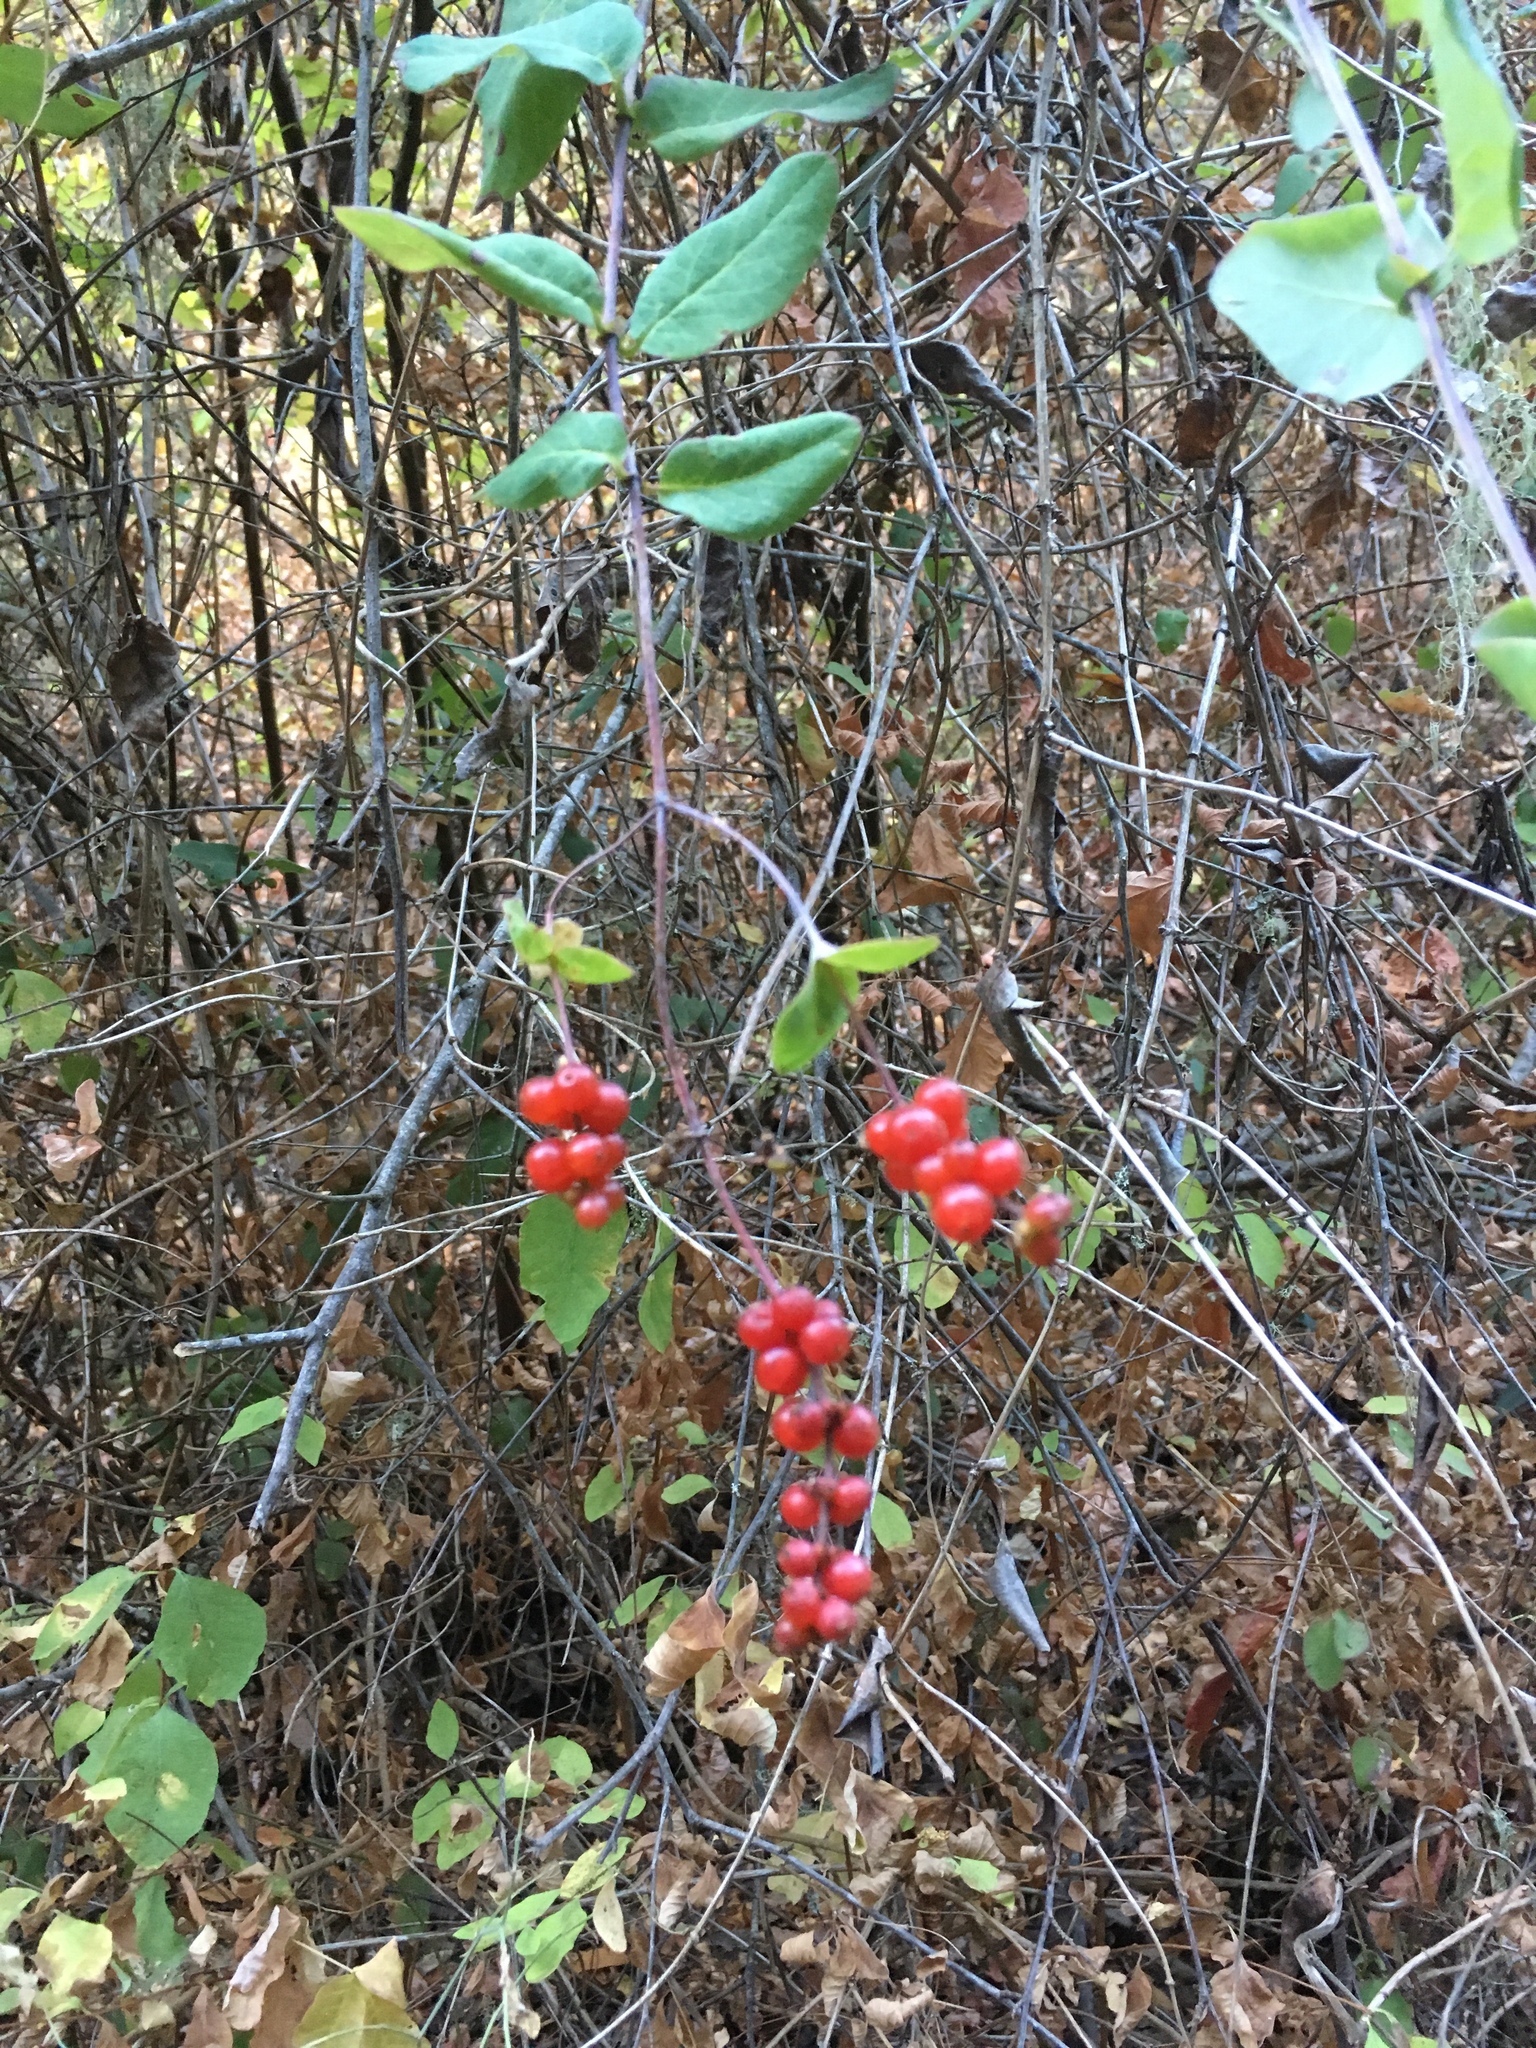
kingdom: Plantae
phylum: Tracheophyta
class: Magnoliopsida
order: Dipsacales
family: Caprifoliaceae
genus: Lonicera
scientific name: Lonicera hispidula
